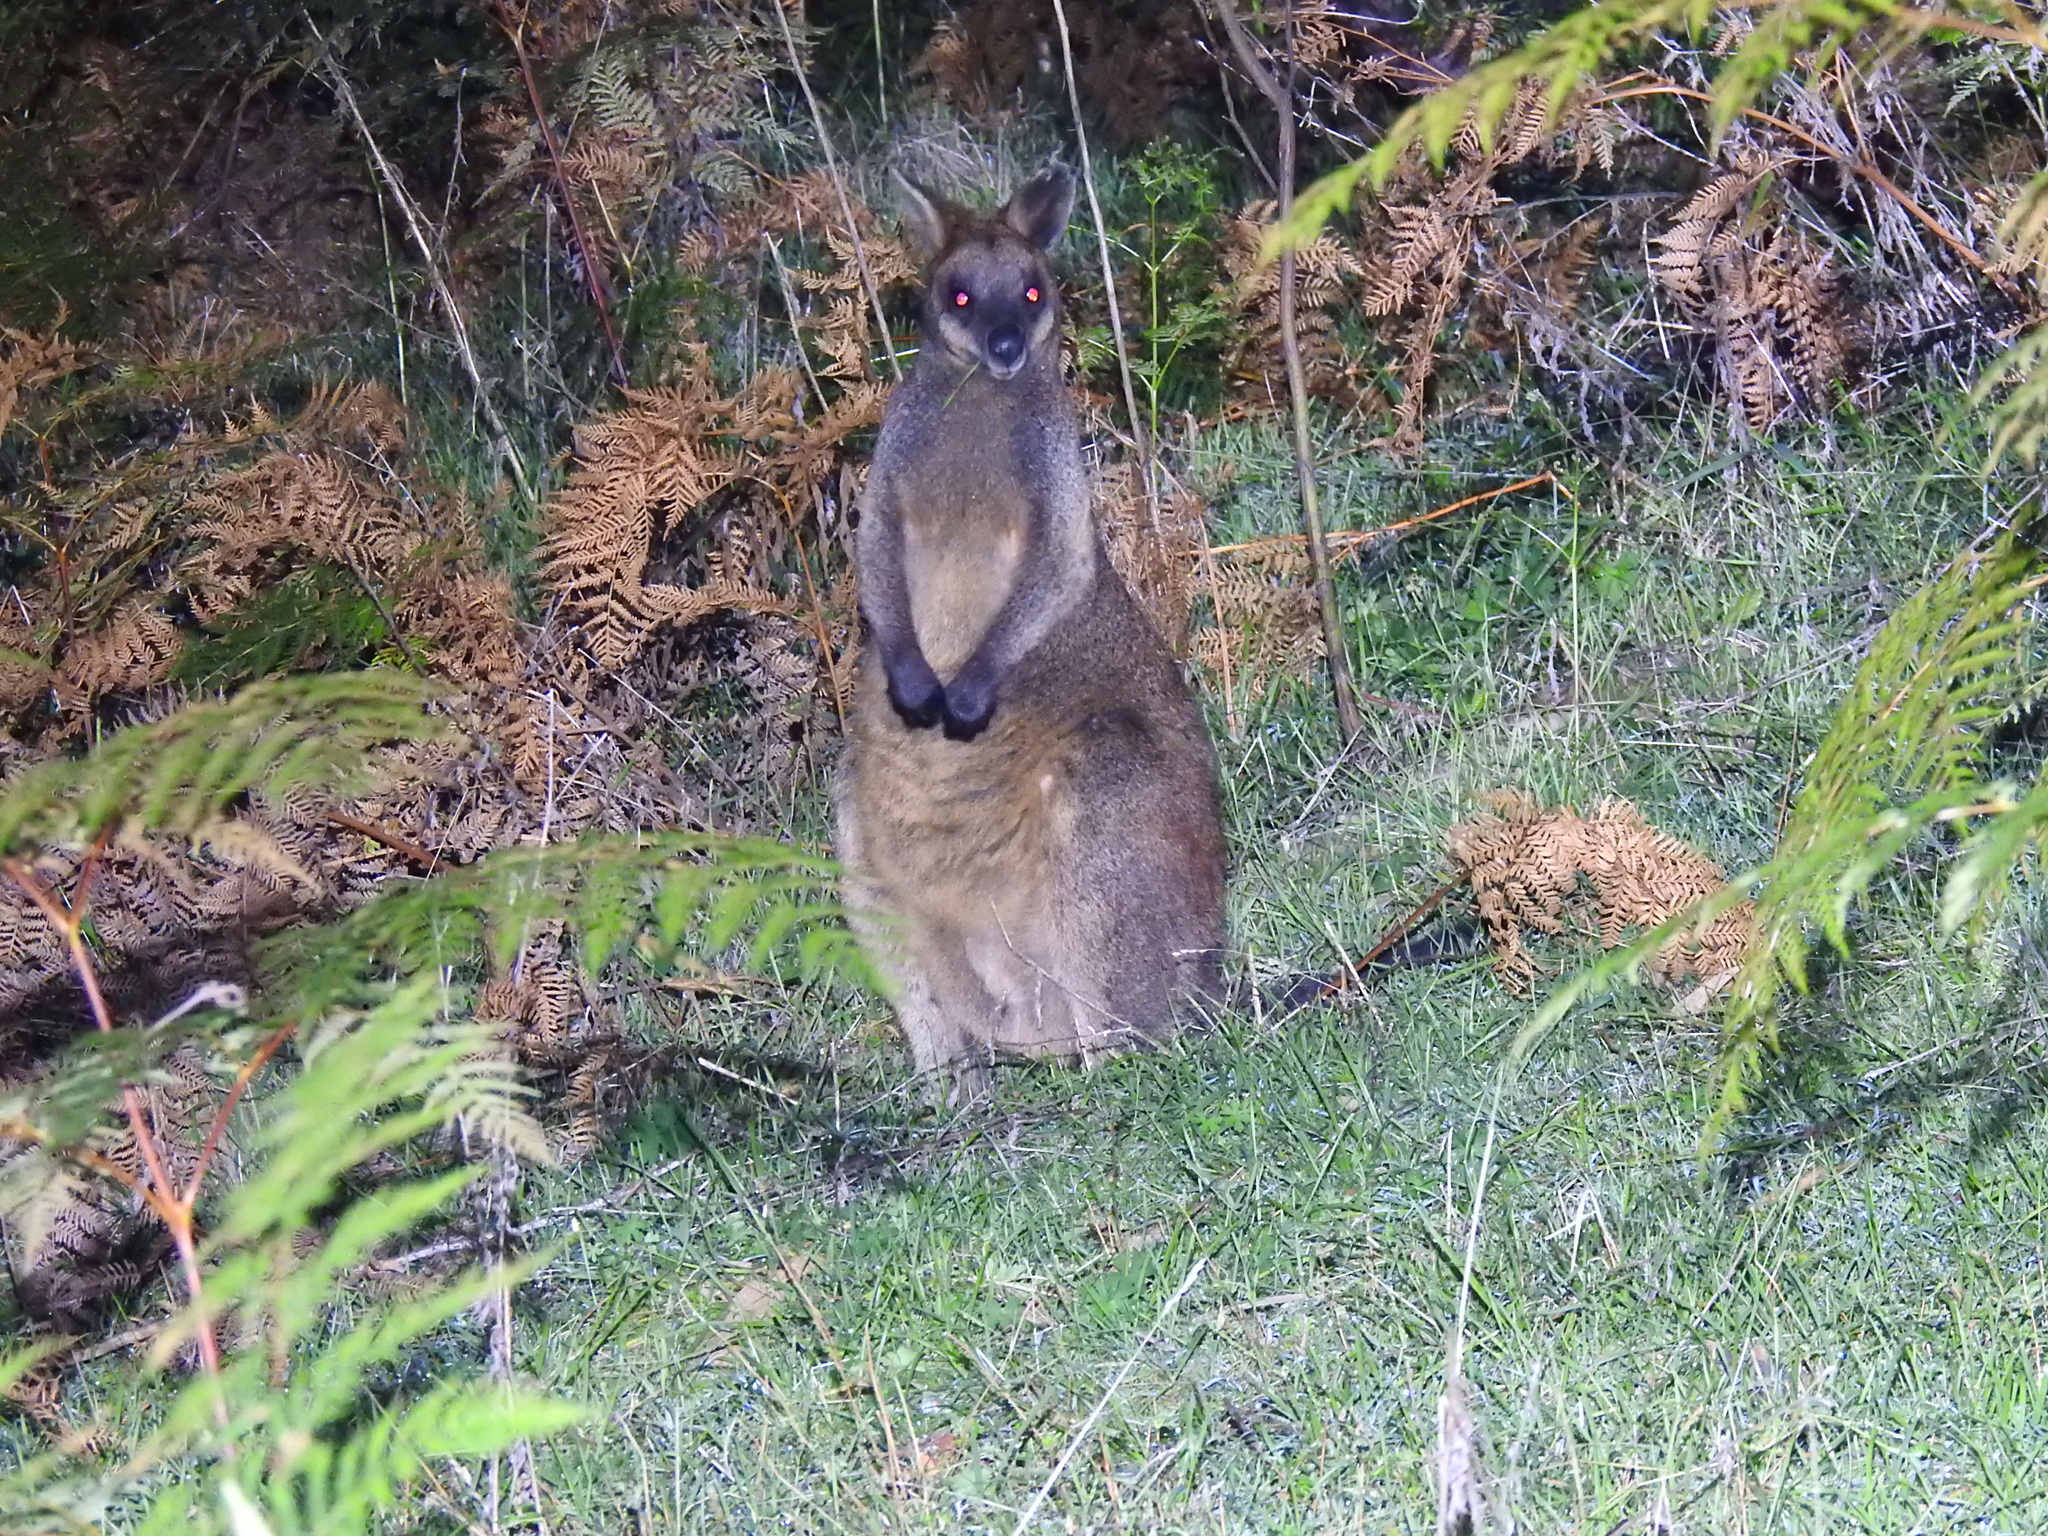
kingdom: Animalia
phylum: Chordata
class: Mammalia
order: Diprotodontia
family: Macropodidae
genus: Wallabia
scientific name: Wallabia bicolor
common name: Swamp wallaby
